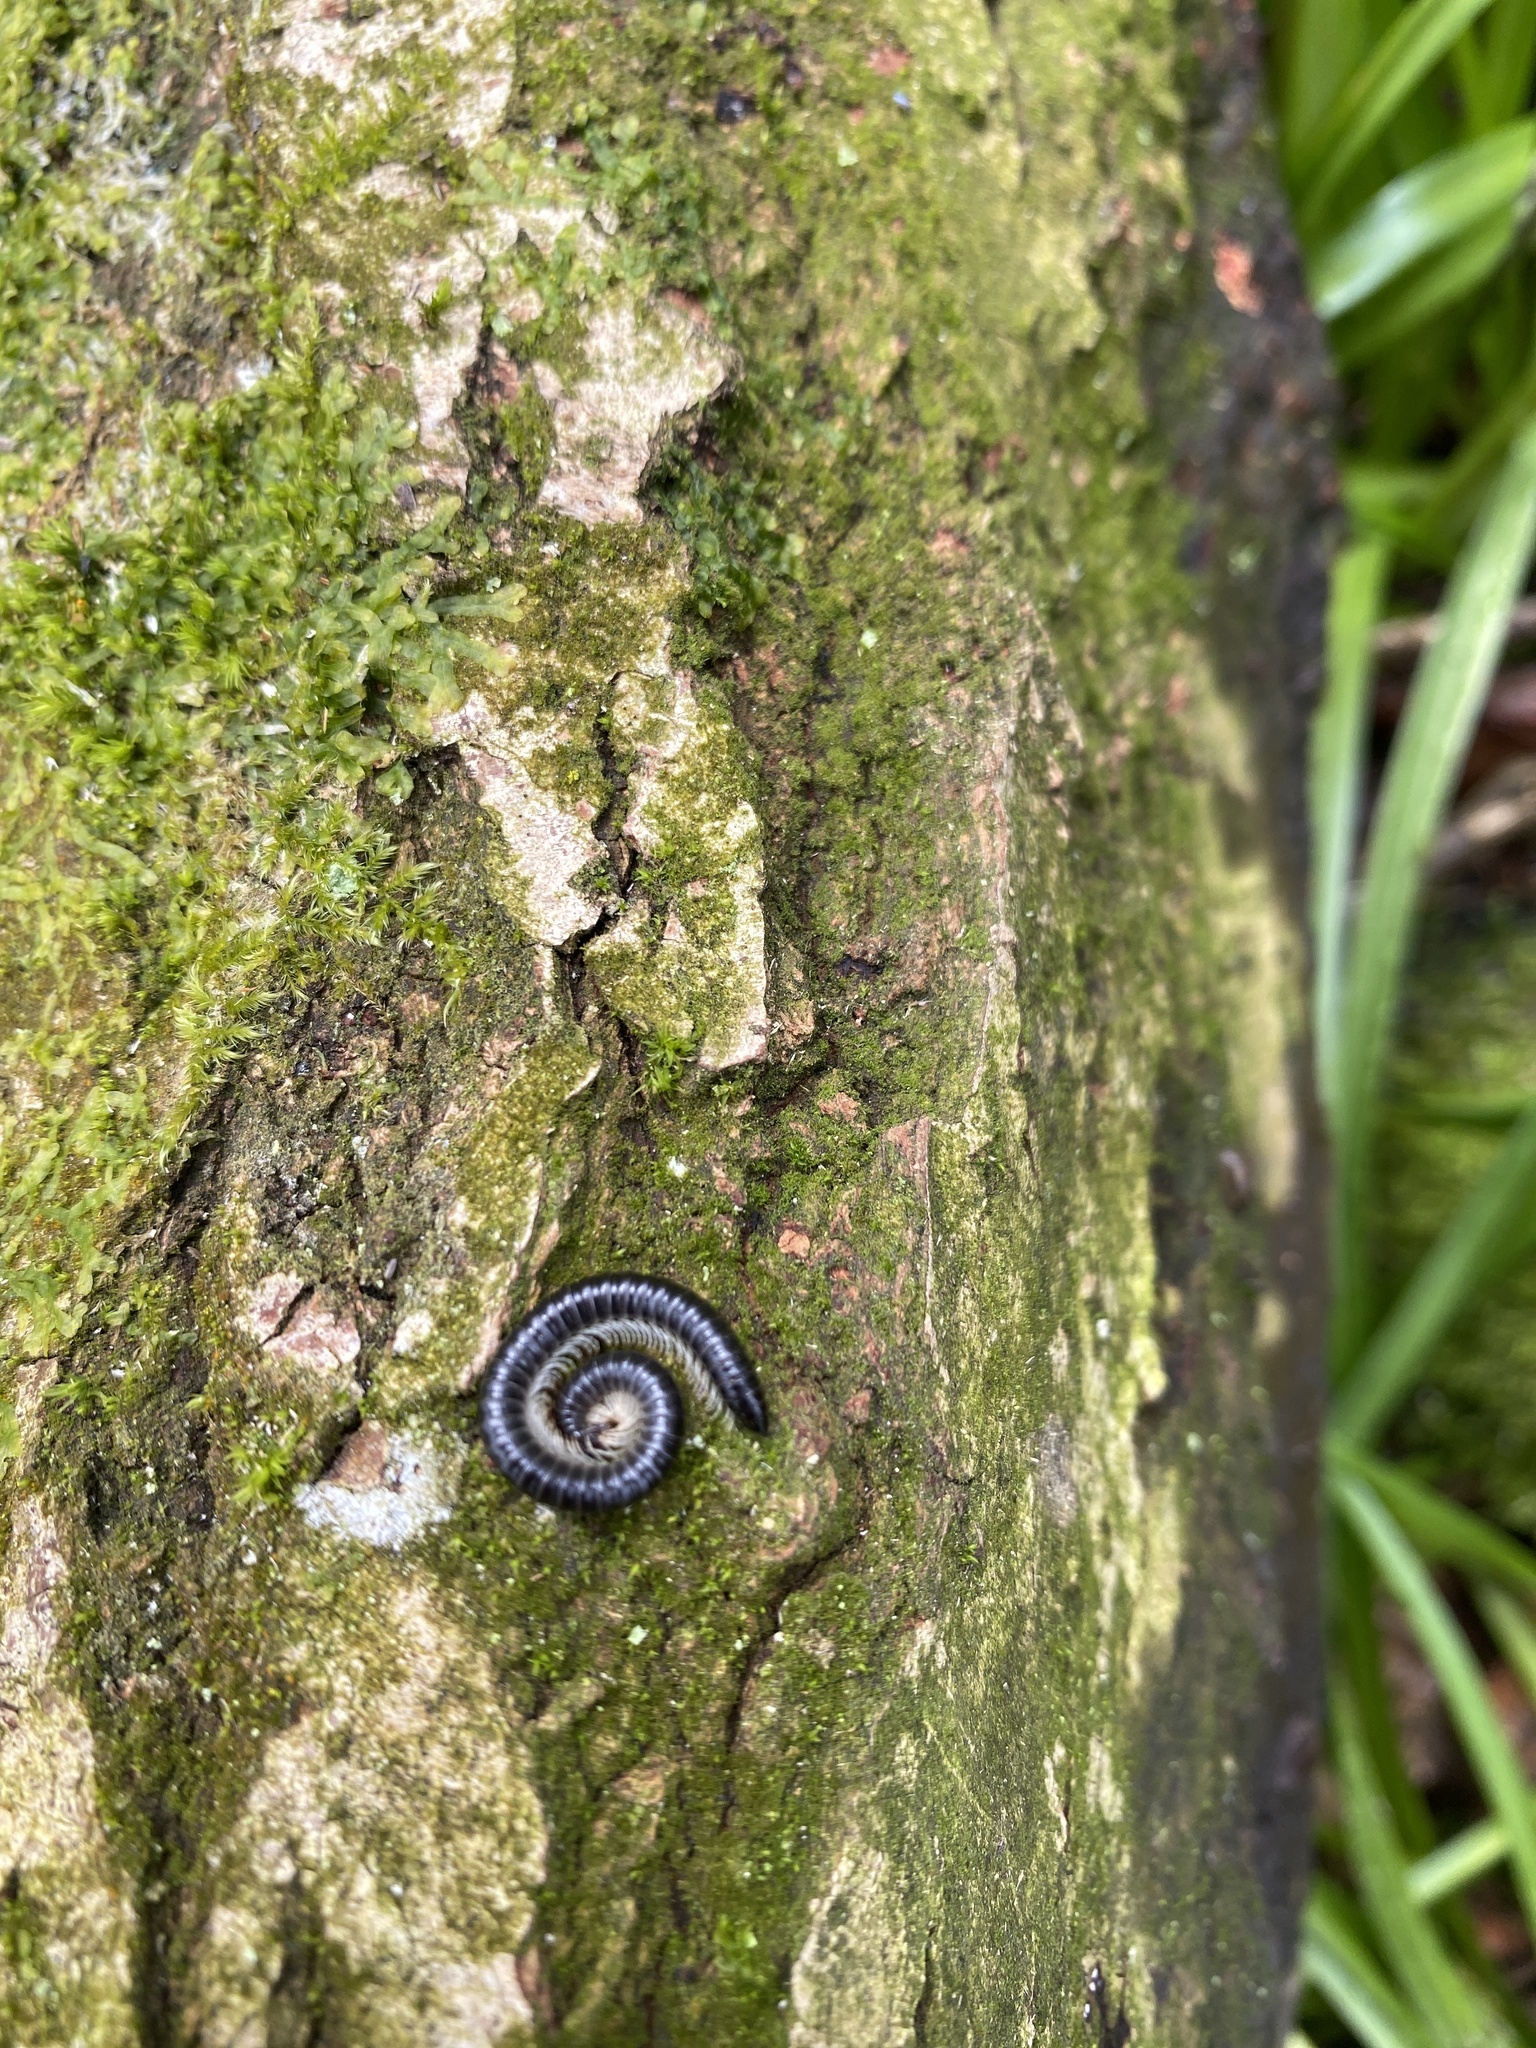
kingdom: Animalia
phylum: Arthropoda
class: Diplopoda
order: Julida
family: Julidae
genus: Tachypodoiulus
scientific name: Tachypodoiulus niger
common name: White-legged snake millipede
